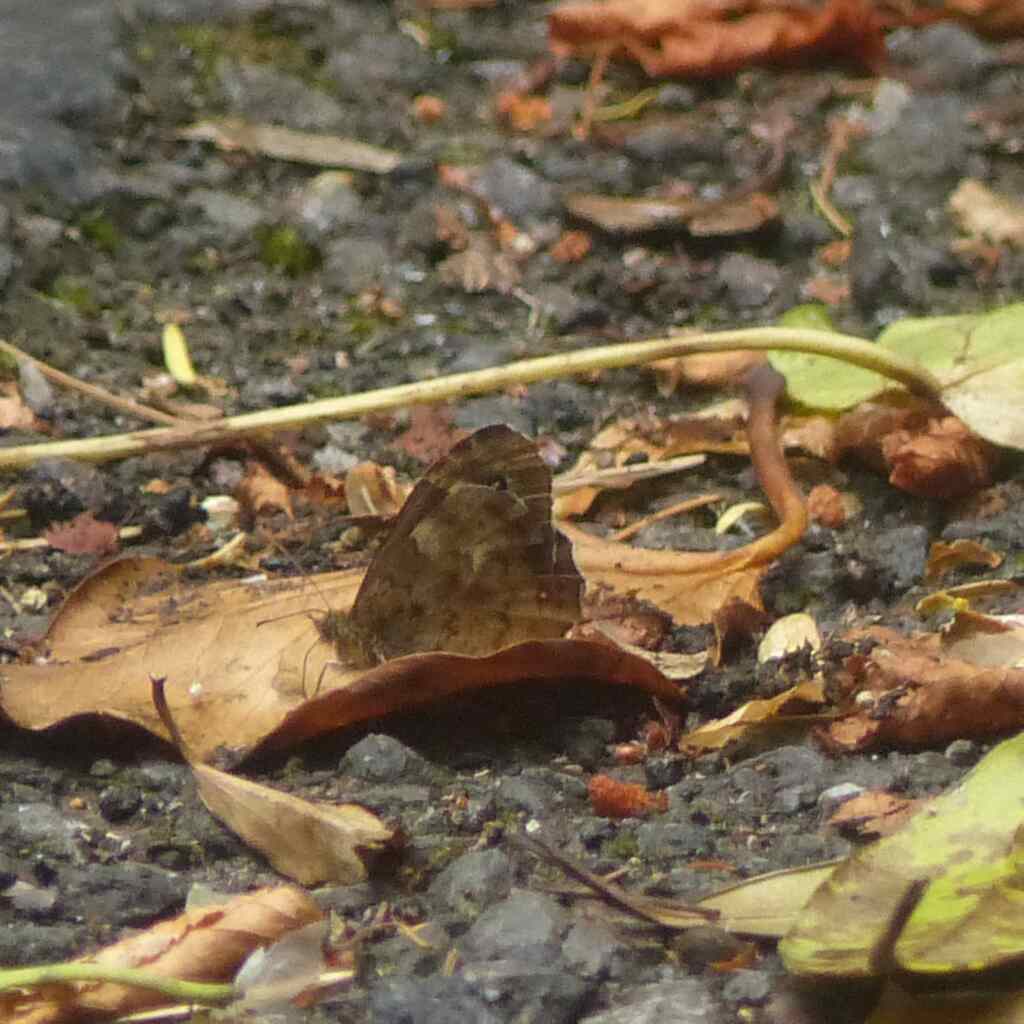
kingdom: Animalia
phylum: Arthropoda
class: Insecta
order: Lepidoptera
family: Nymphalidae
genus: Pararge
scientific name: Pararge aegeria
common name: Speckled wood
